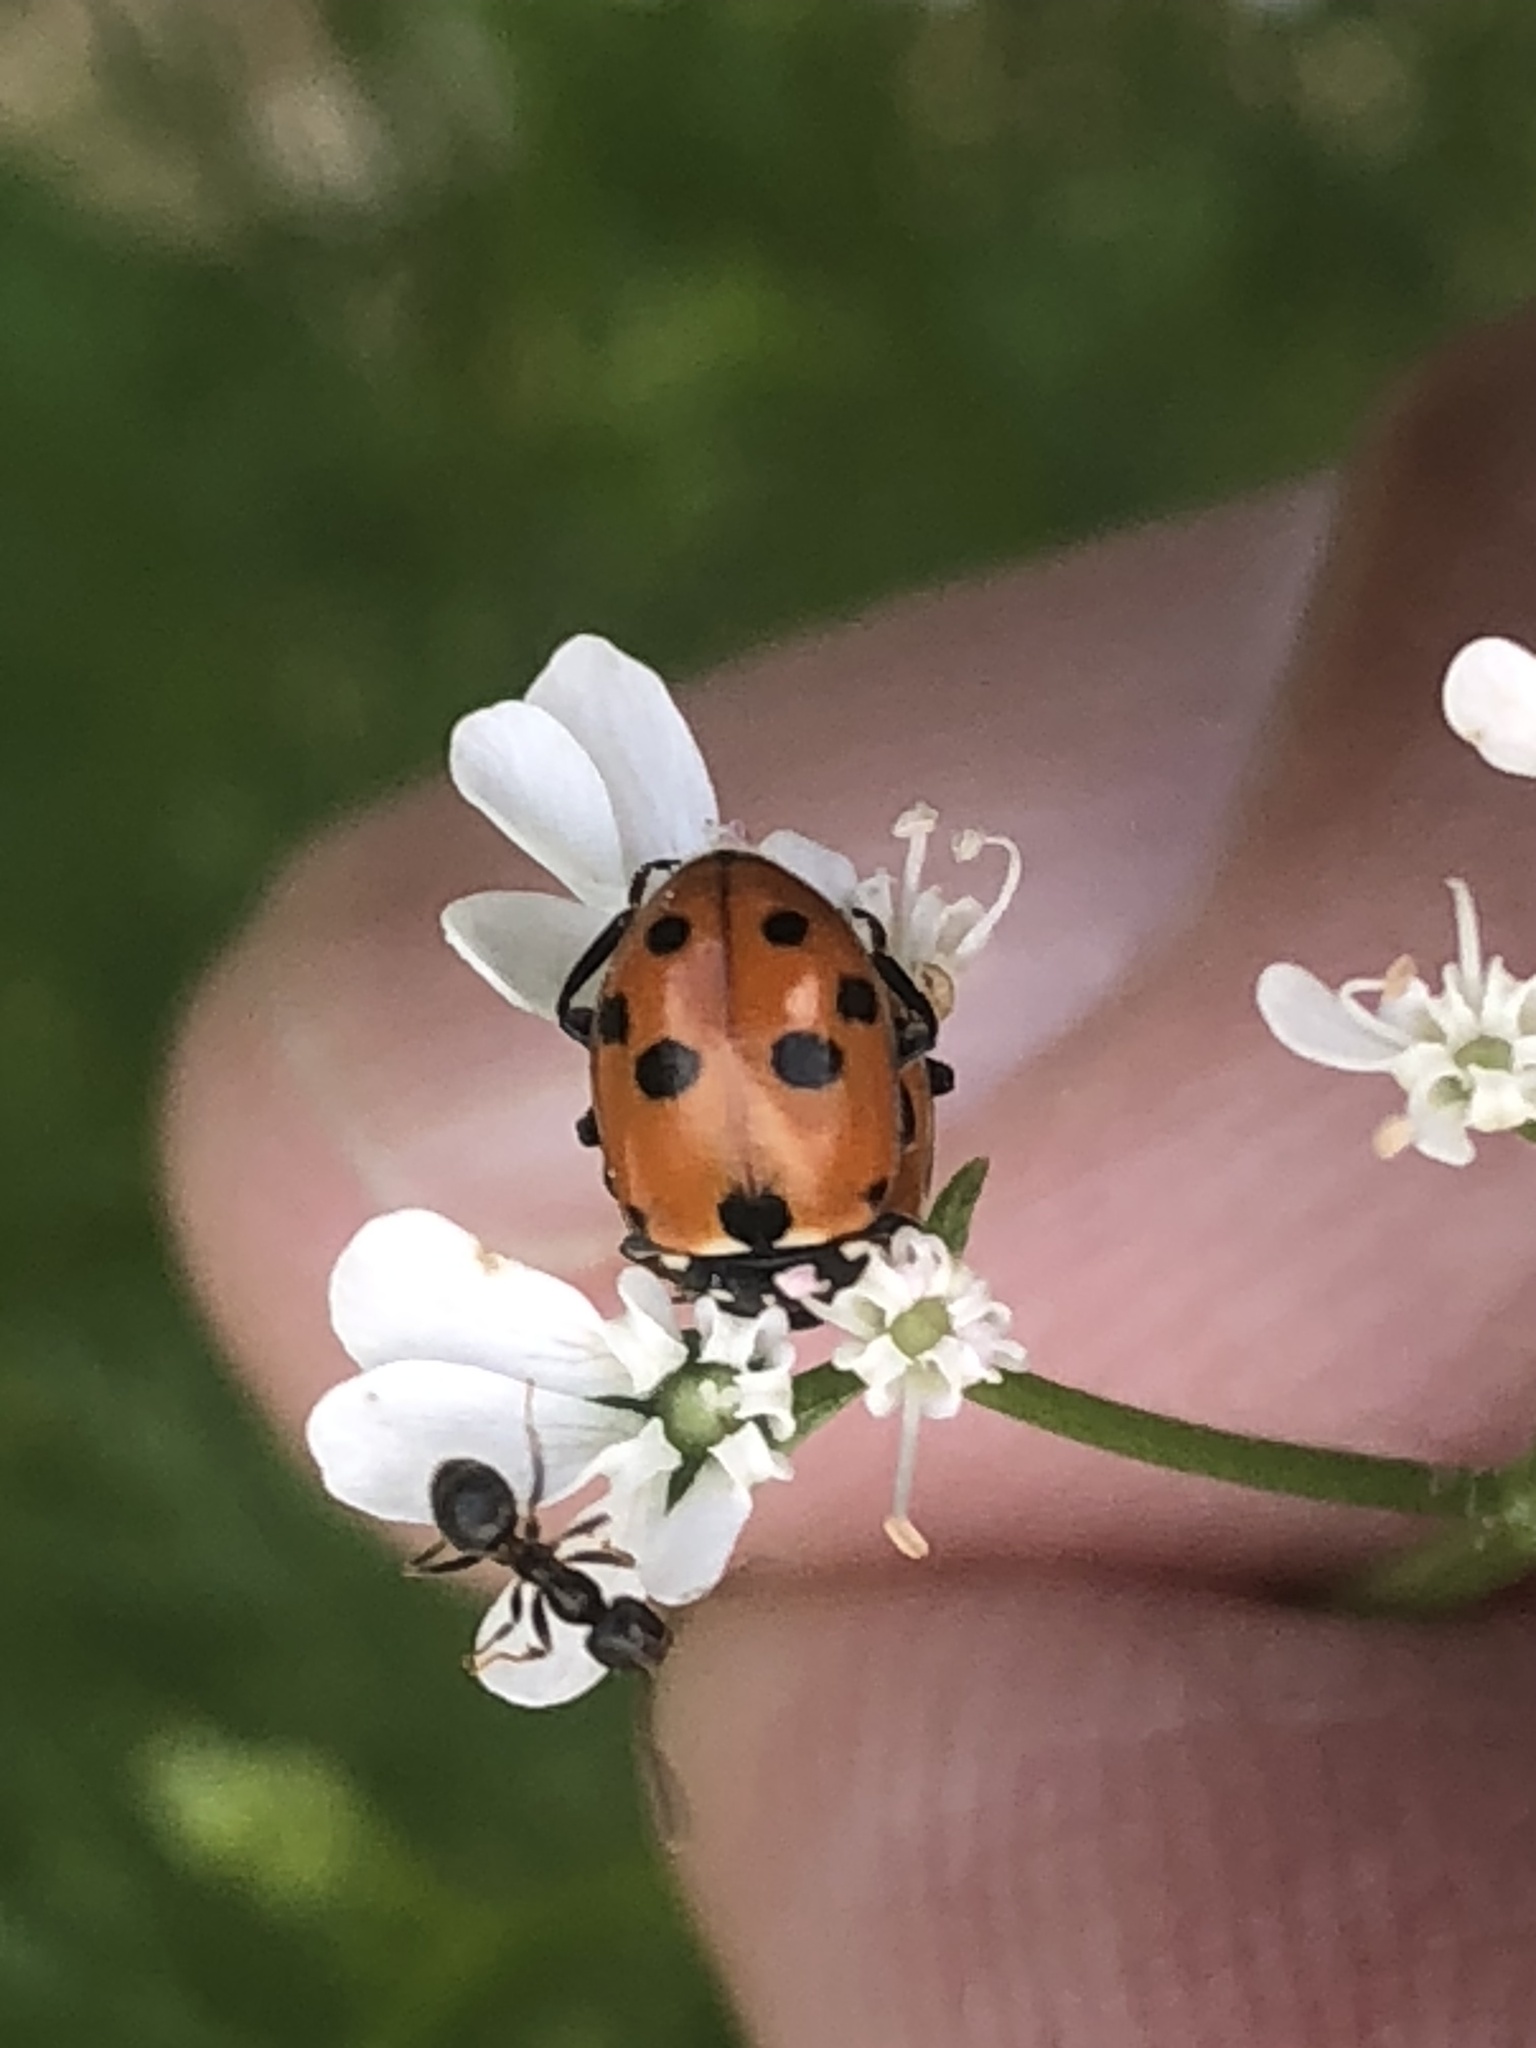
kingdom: Animalia
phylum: Arthropoda
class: Insecta
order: Coleoptera
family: Coccinellidae
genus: Hippodamia
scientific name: Hippodamia variegata
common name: Ladybird beetle
